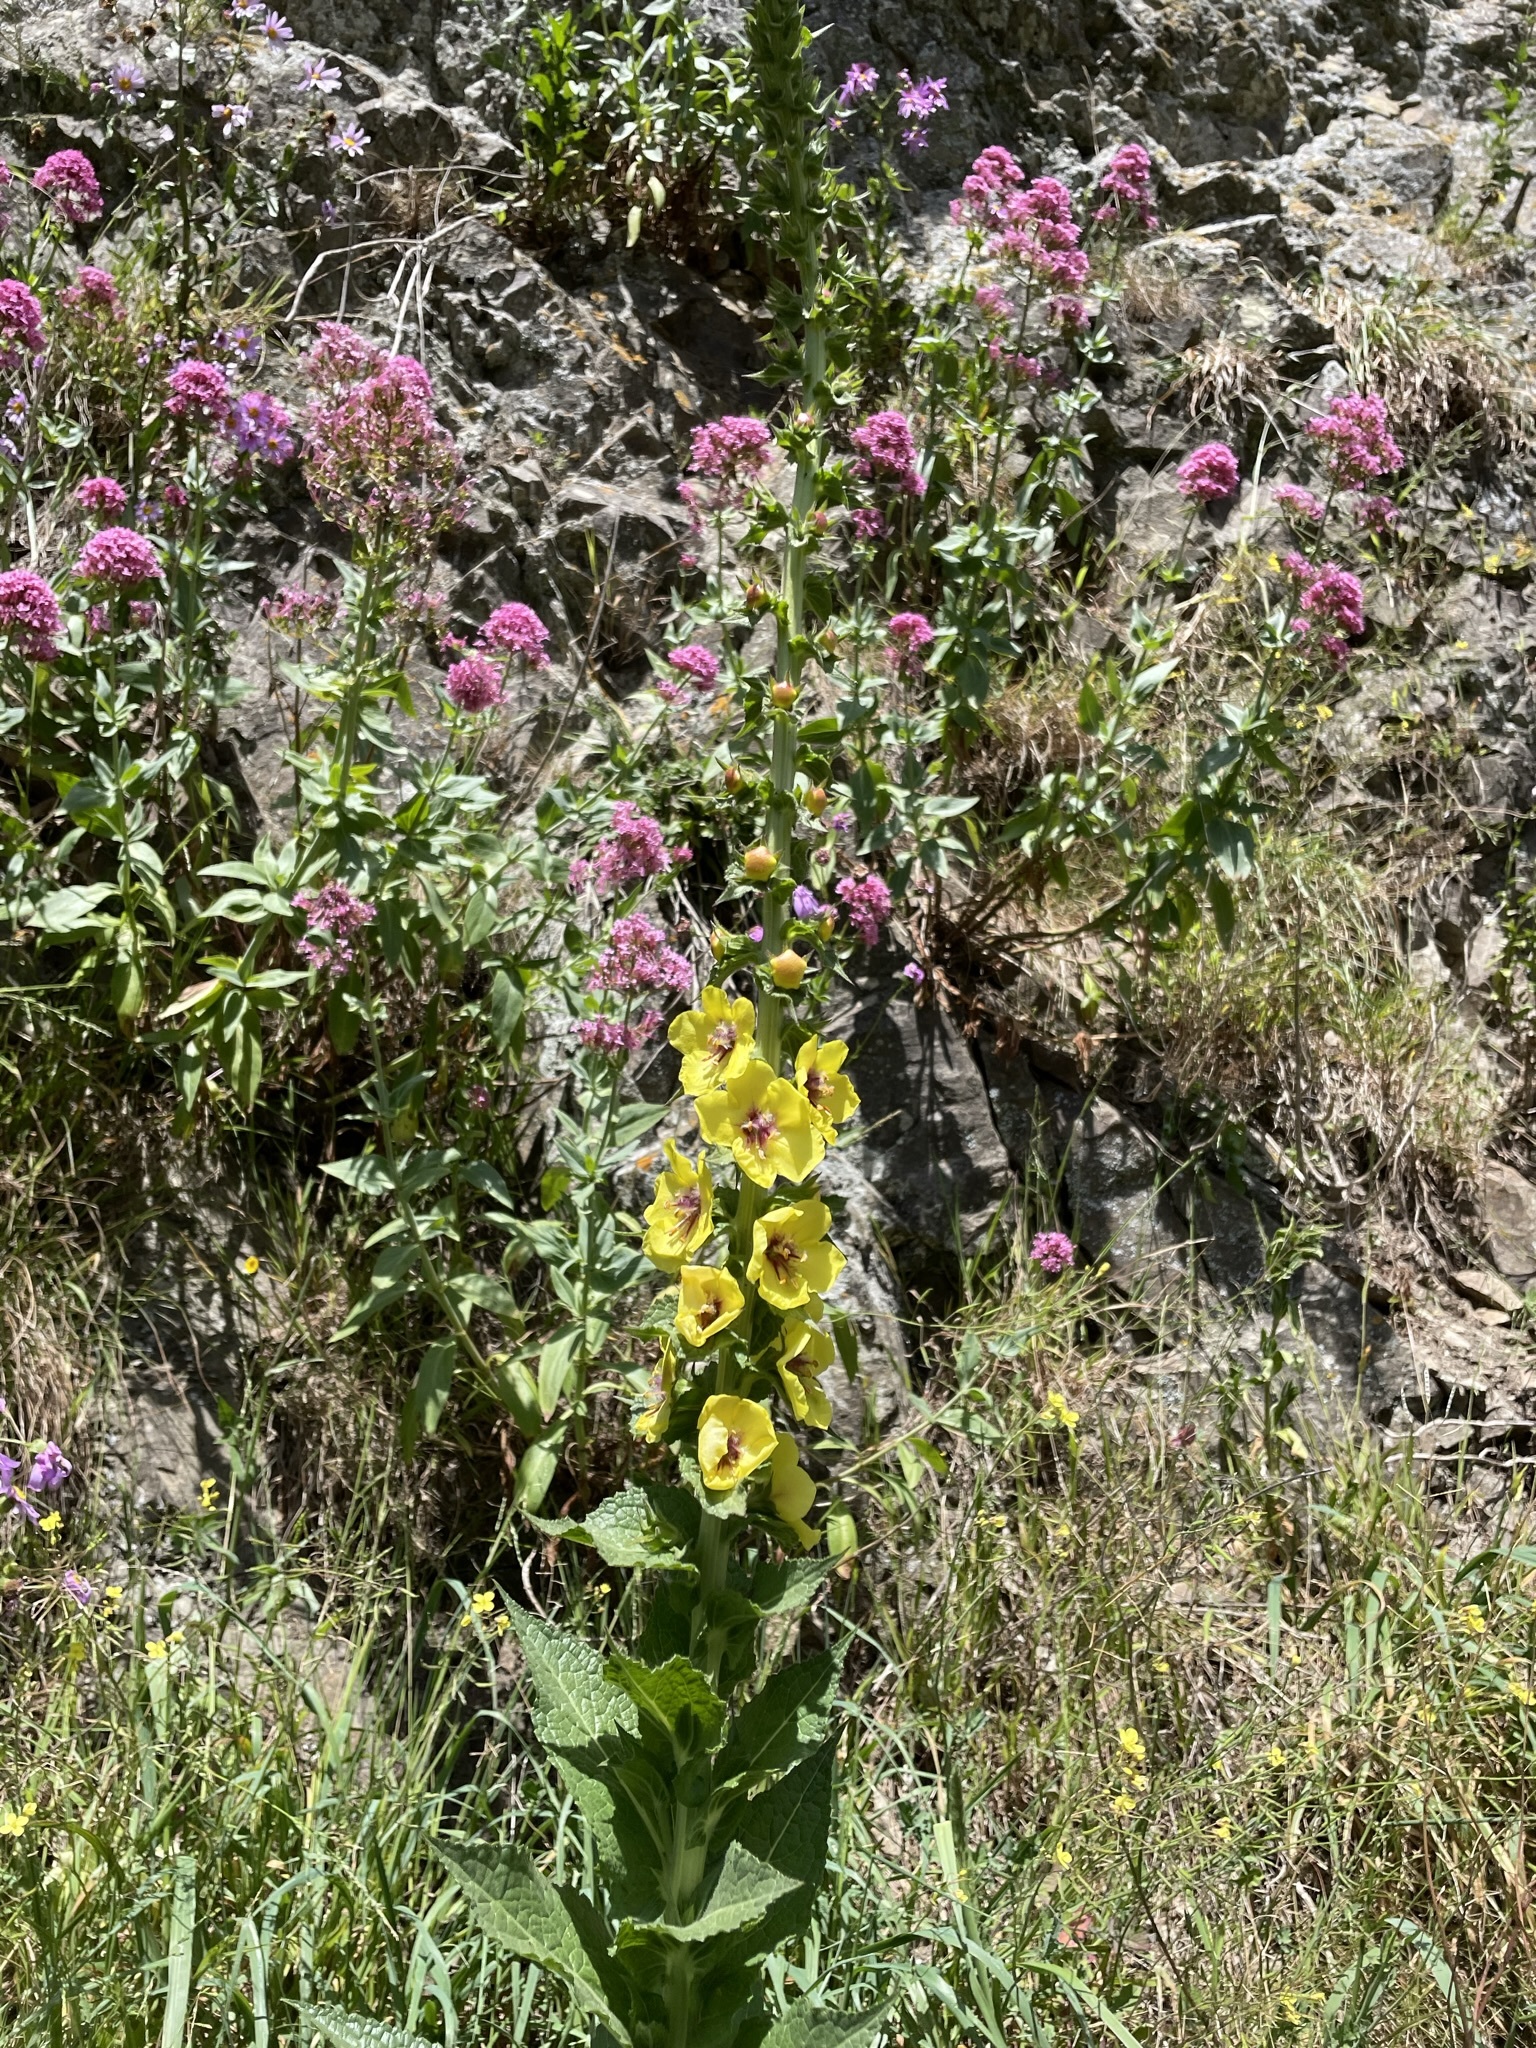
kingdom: Plantae
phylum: Tracheophyta
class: Magnoliopsida
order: Lamiales
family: Scrophulariaceae
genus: Verbascum
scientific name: Verbascum virgatum
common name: Twiggy mullein
